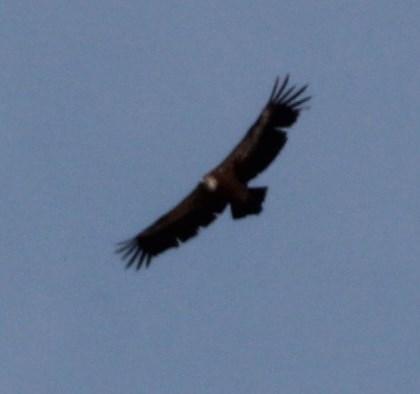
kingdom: Animalia
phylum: Chordata
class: Aves
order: Accipitriformes
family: Accipitridae
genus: Gyps
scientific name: Gyps fulvus
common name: Griffon vulture
